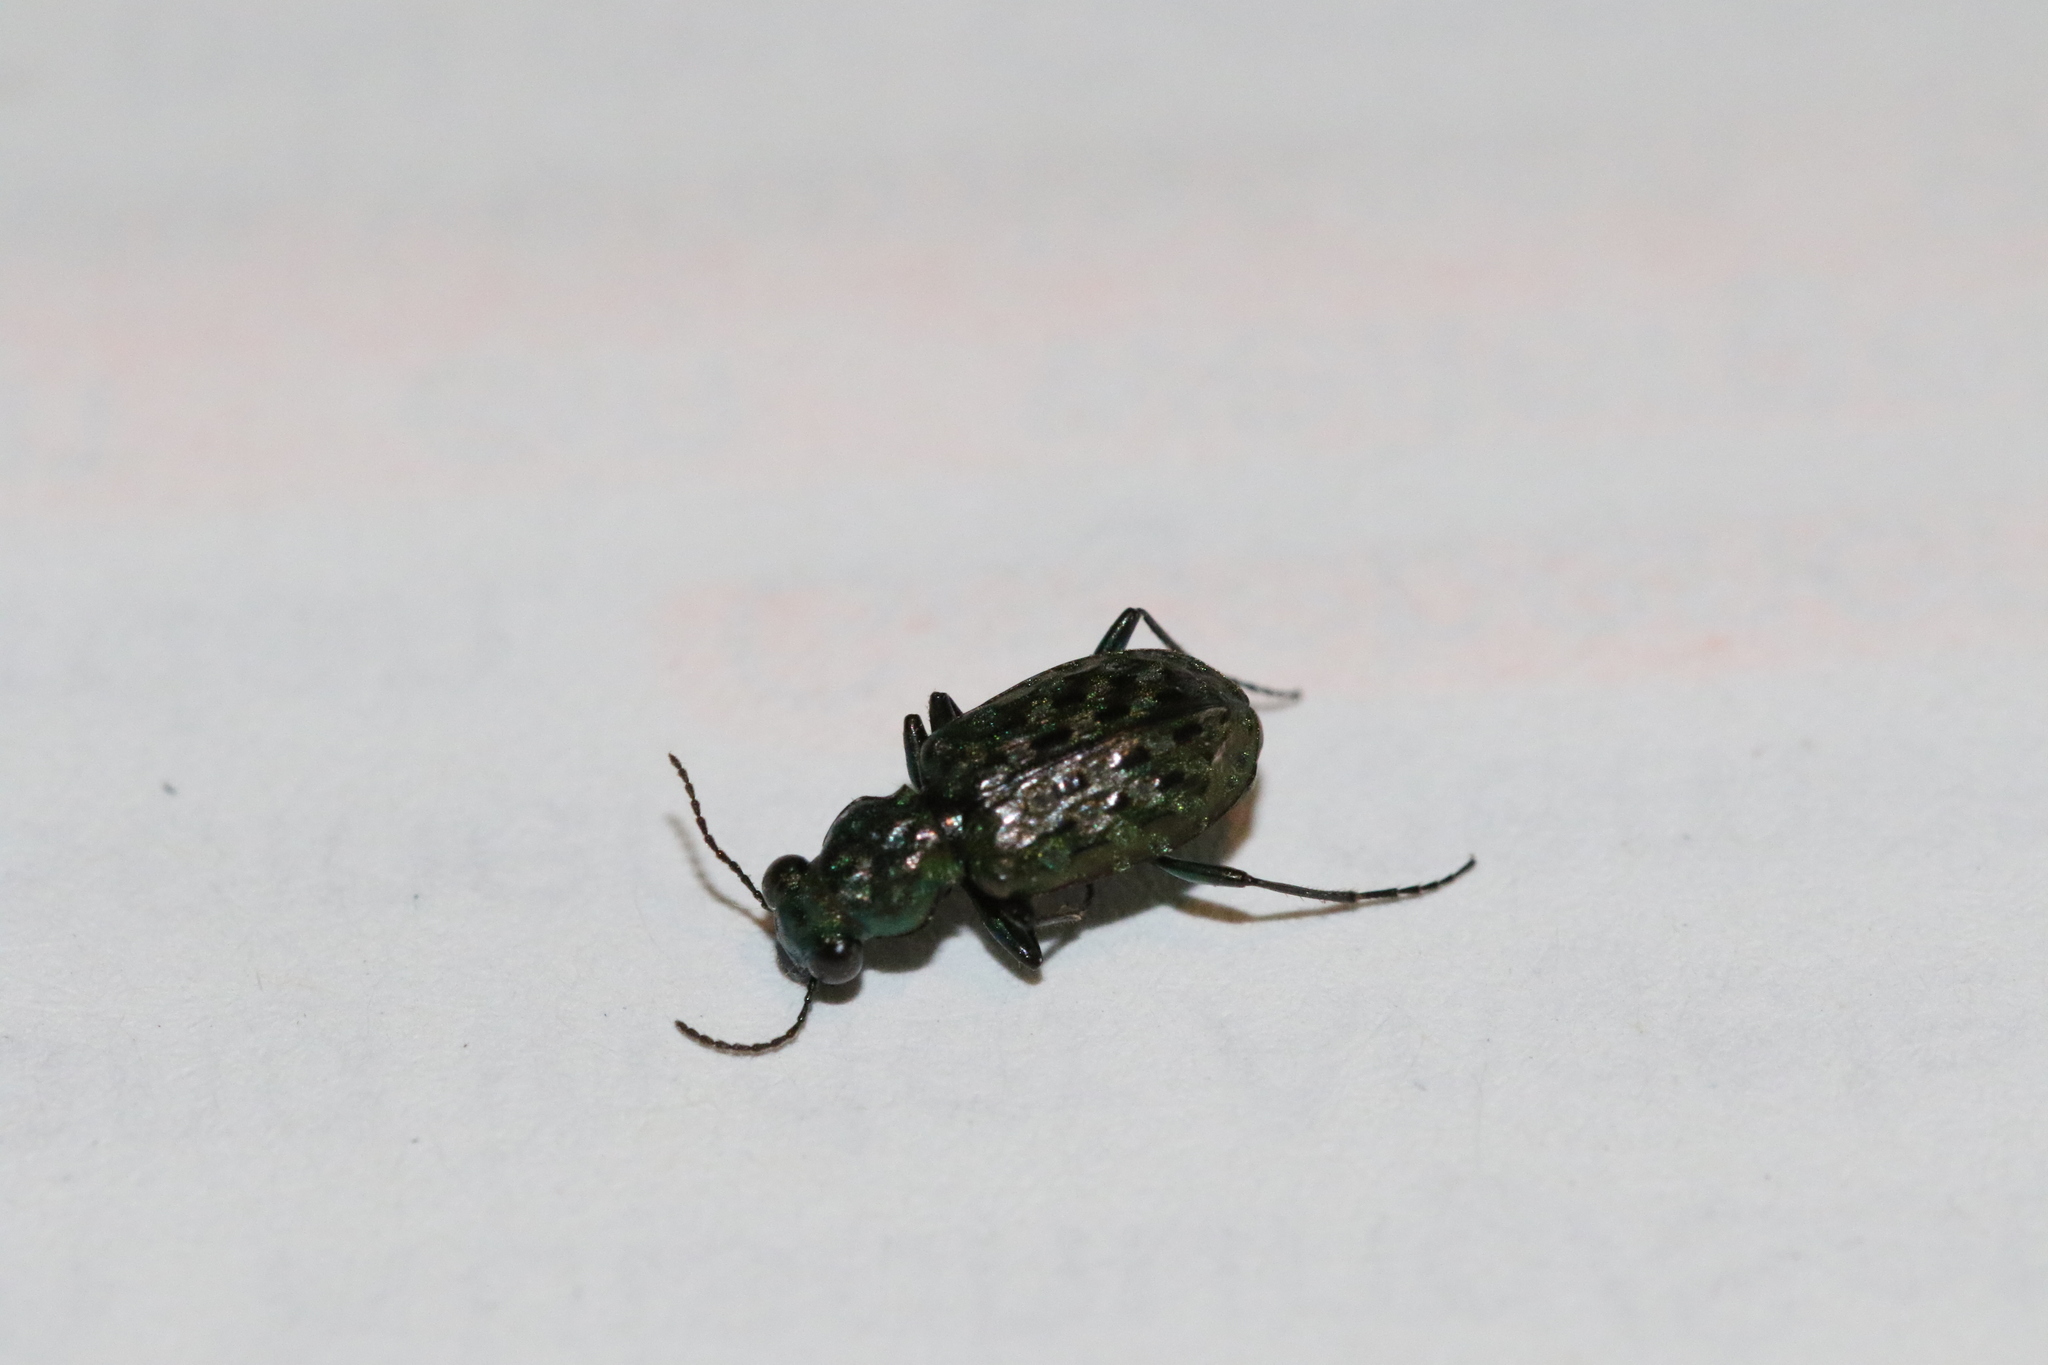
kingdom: Animalia
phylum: Arthropoda
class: Insecta
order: Coleoptera
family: Carabidae
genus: Elaphrus
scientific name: Elaphrus uliginosus
